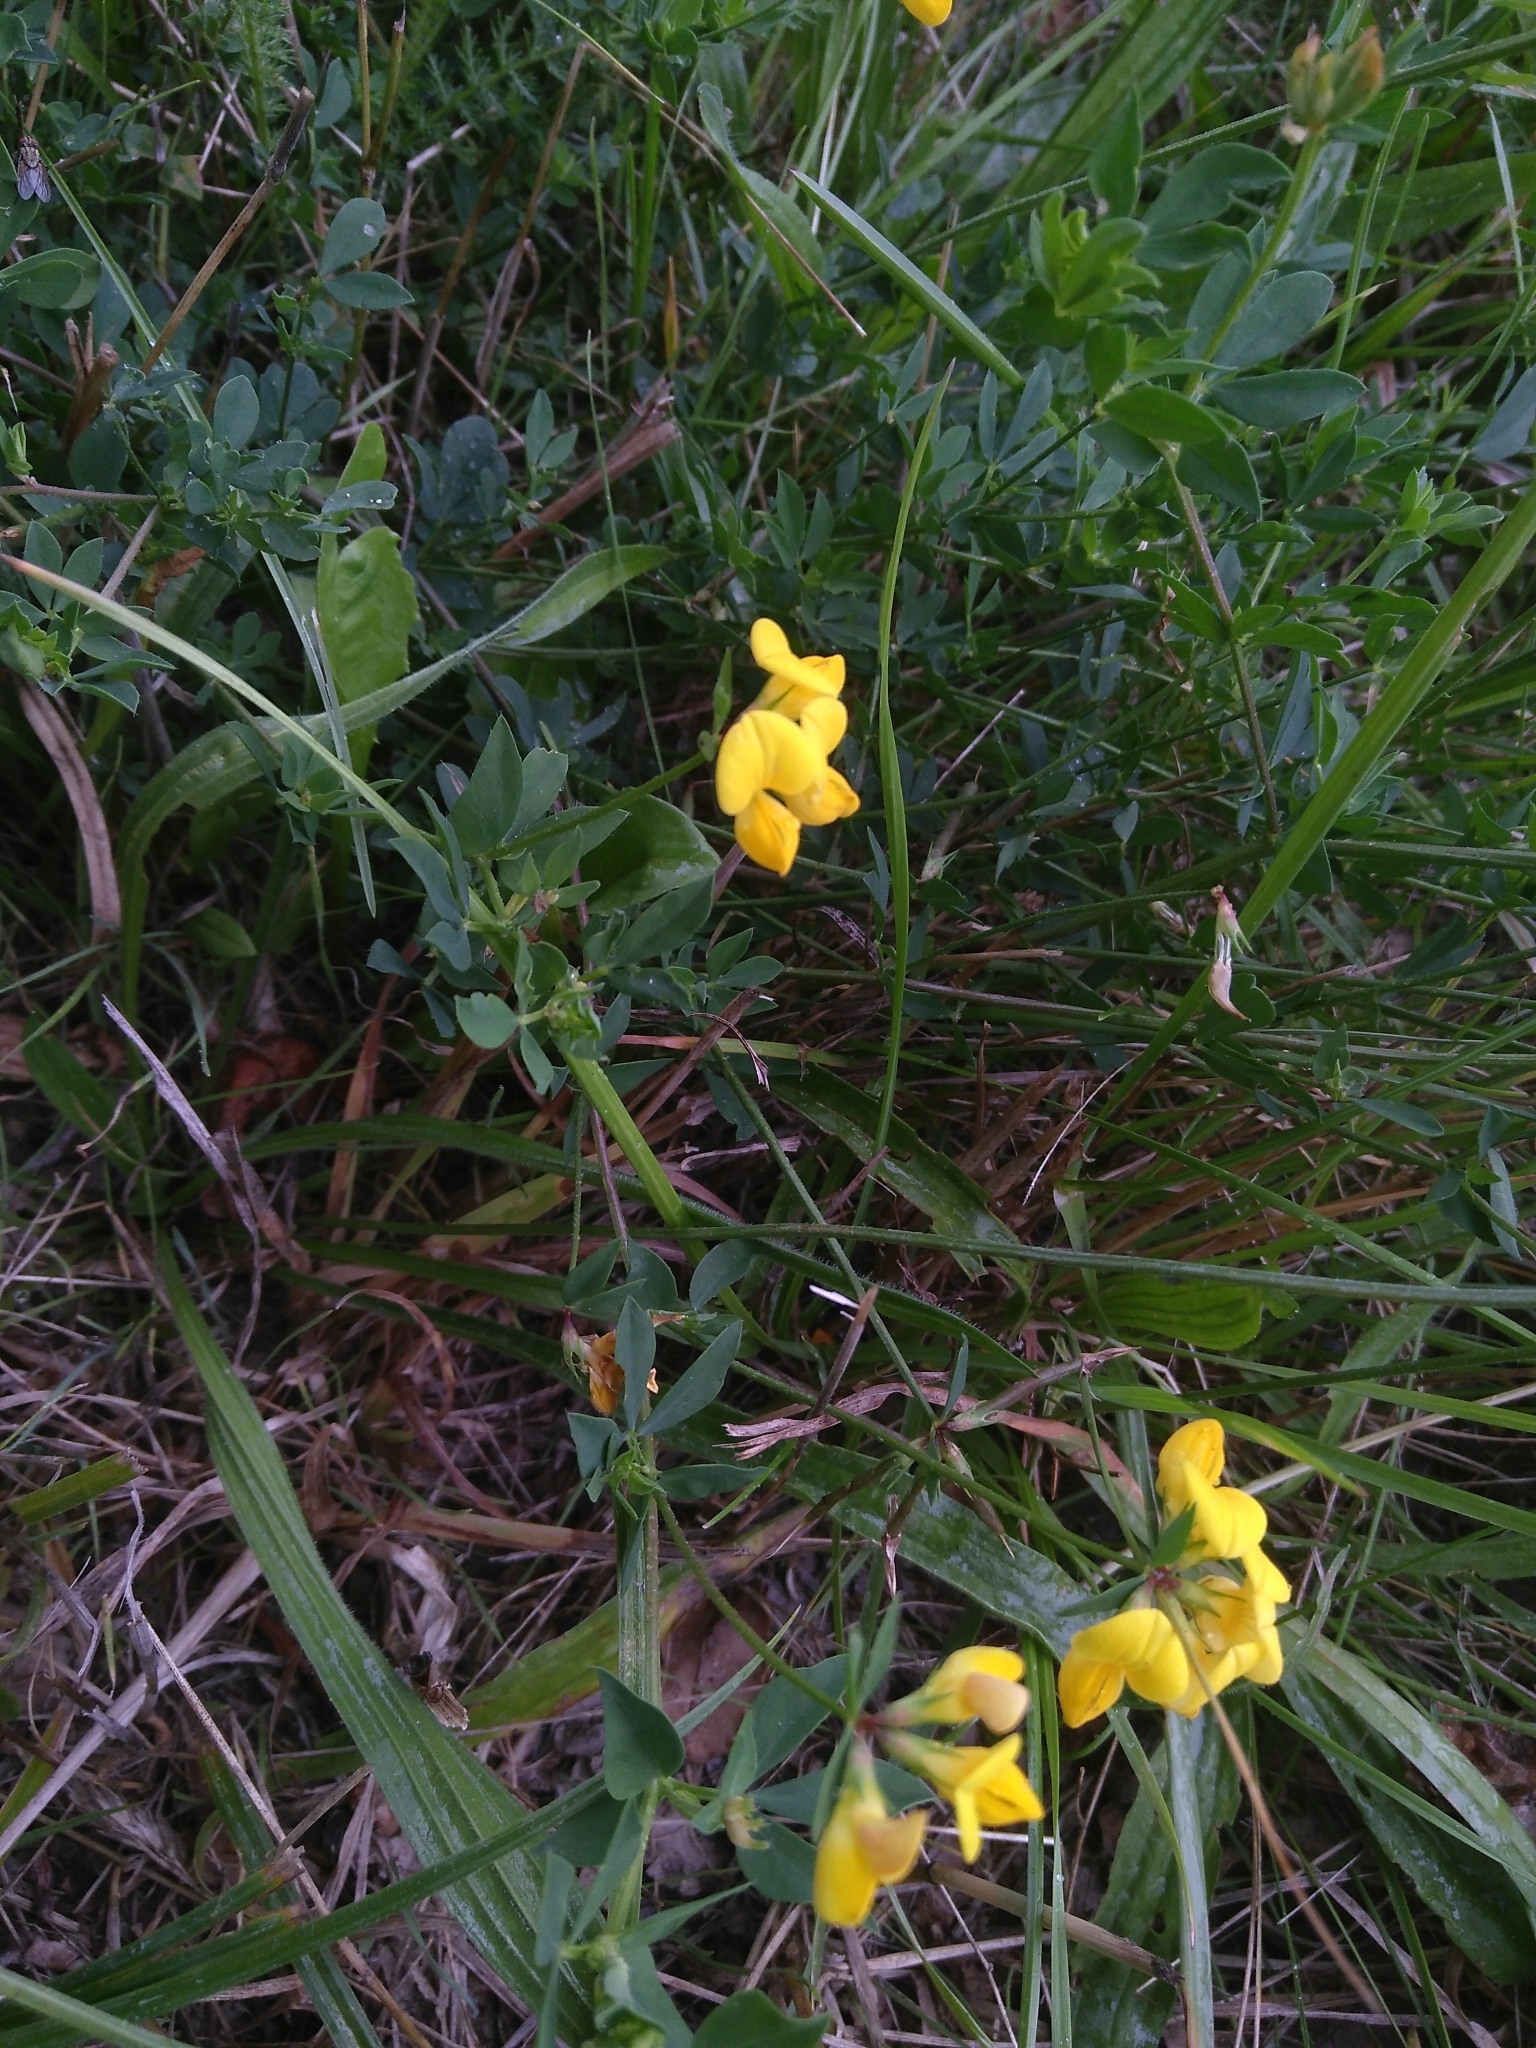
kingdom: Plantae
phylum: Tracheophyta
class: Magnoliopsida
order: Fabales
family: Fabaceae
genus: Lotus
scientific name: Lotus corniculatus
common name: Common bird's-foot-trefoil
